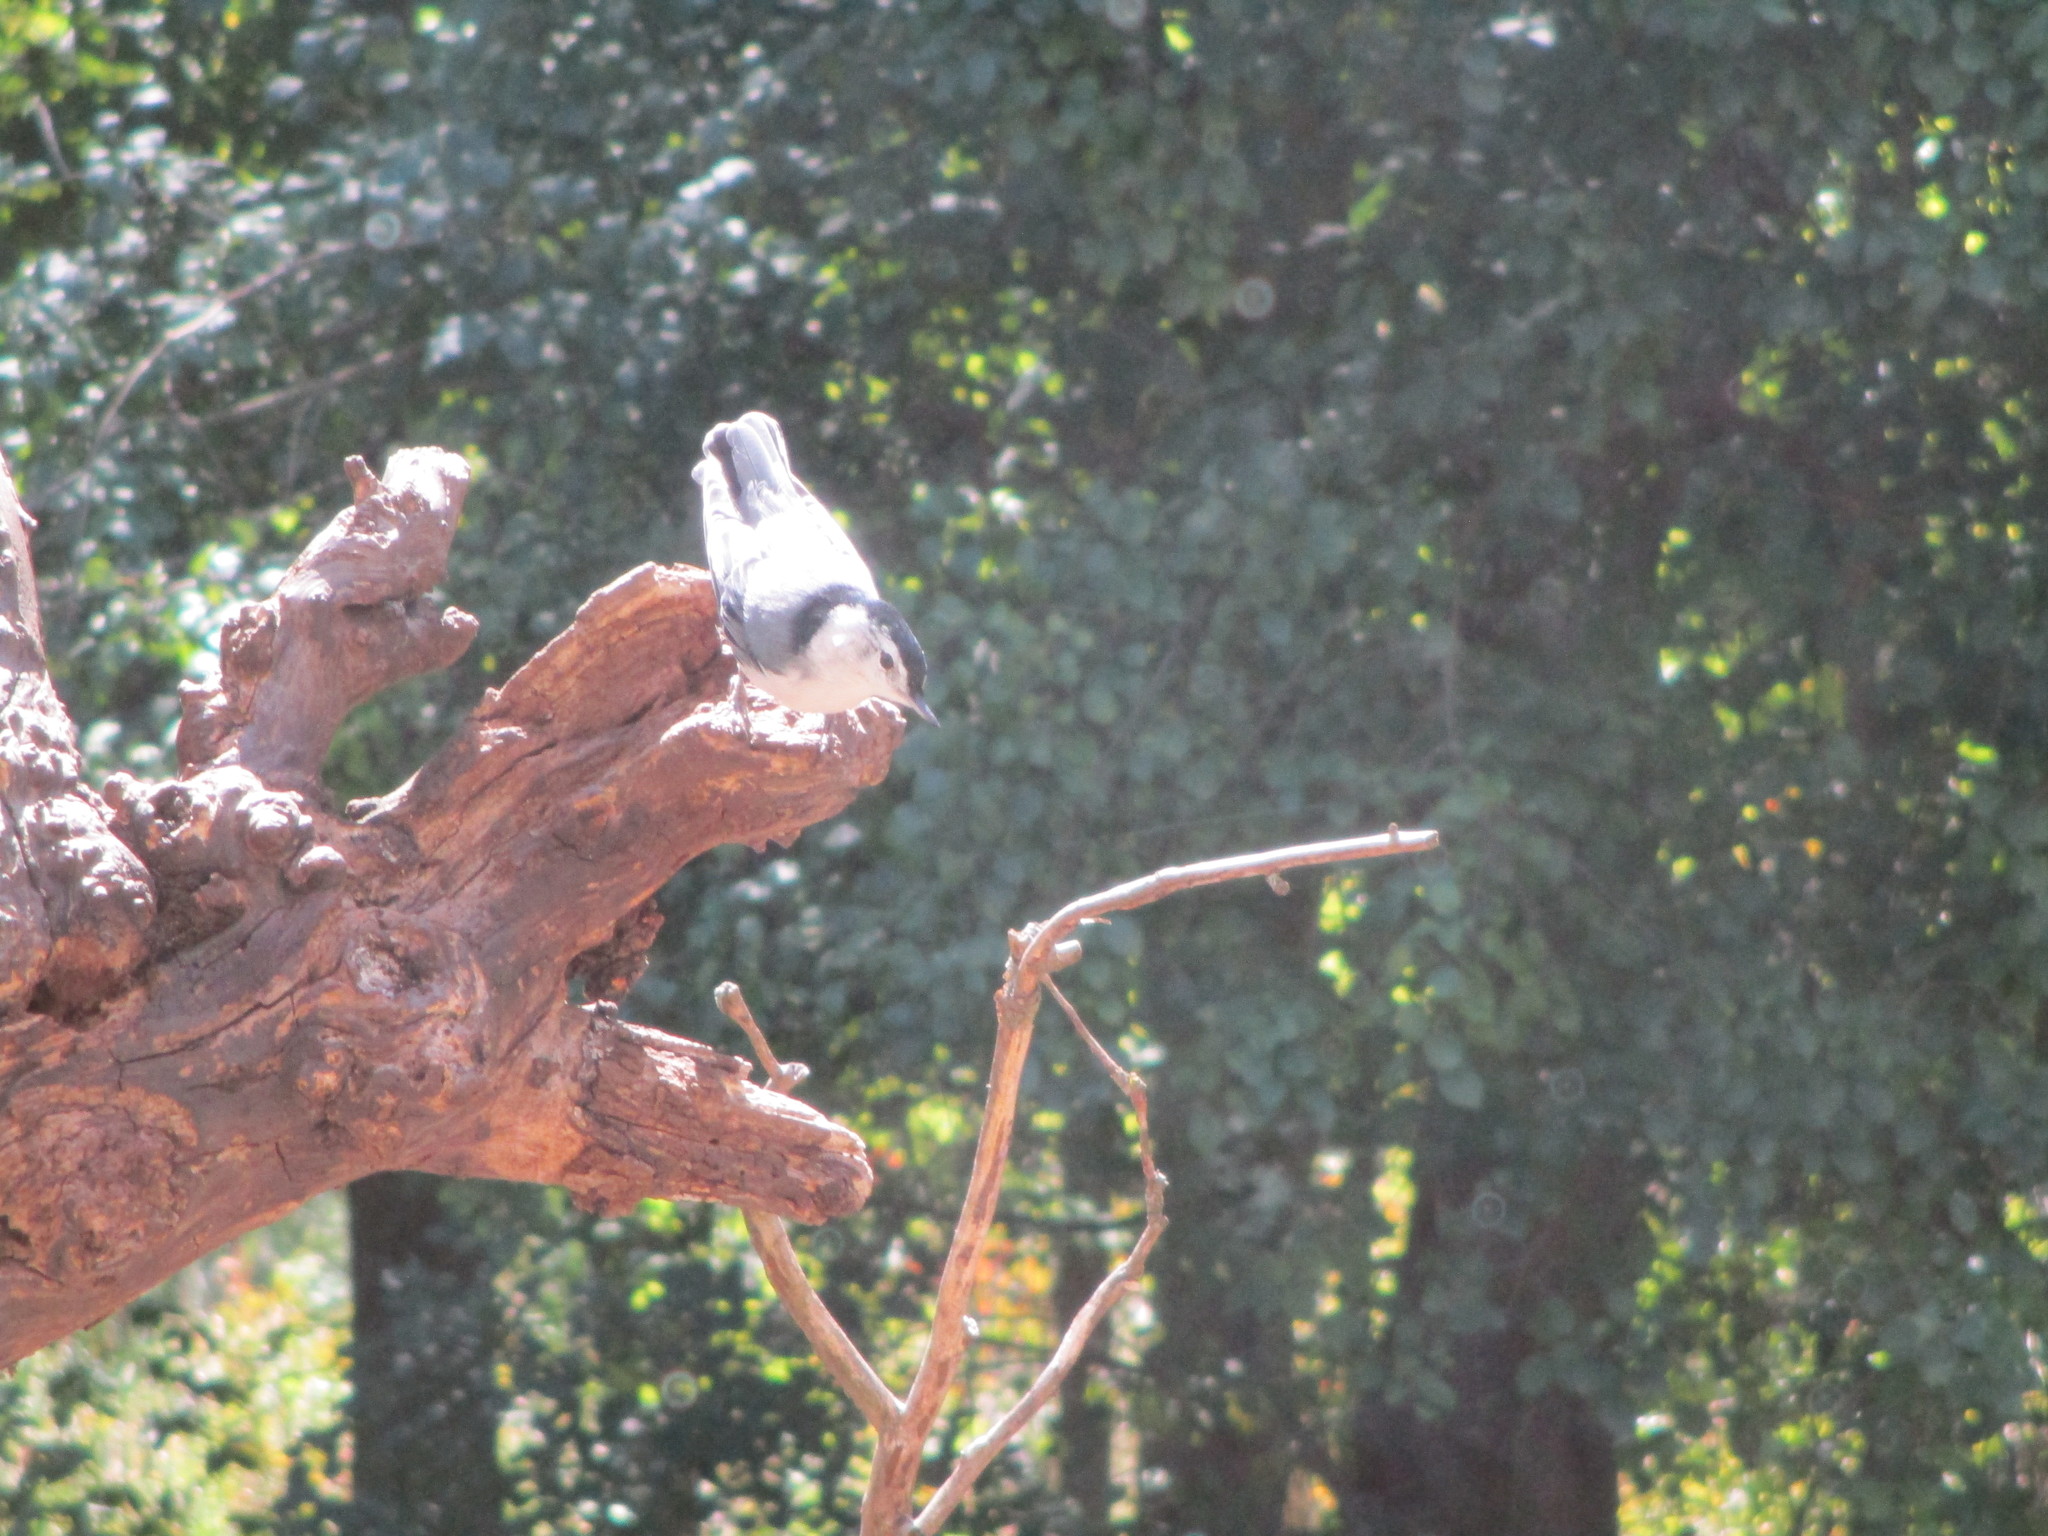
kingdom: Animalia
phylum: Chordata
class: Aves
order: Passeriformes
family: Sittidae
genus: Sitta
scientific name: Sitta carolinensis
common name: White-breasted nuthatch
